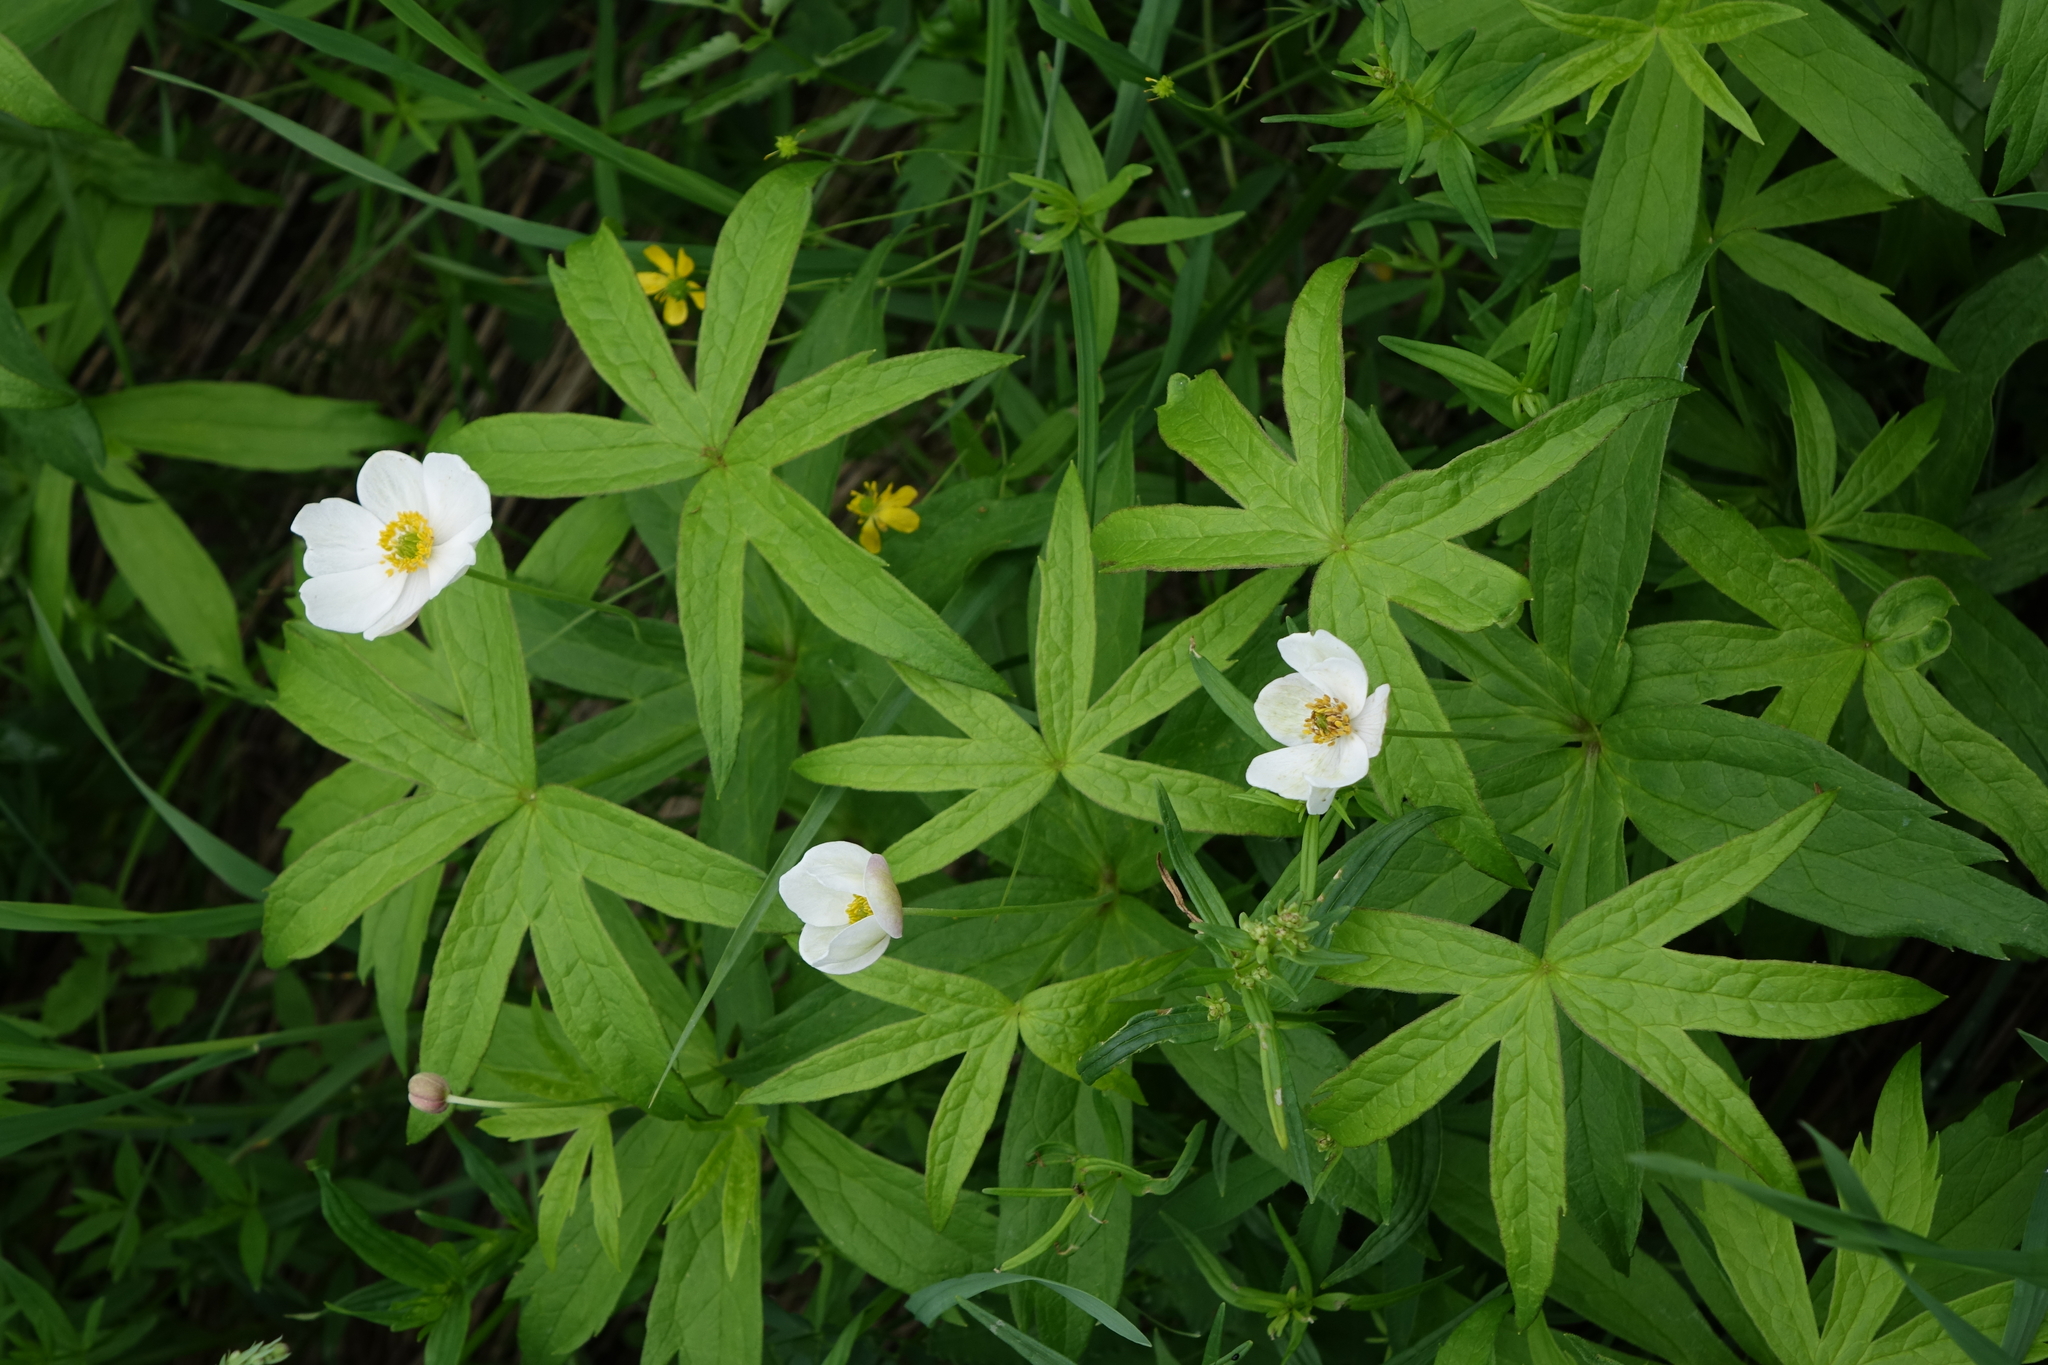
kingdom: Plantae
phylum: Tracheophyta
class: Magnoliopsida
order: Ranunculales
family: Ranunculaceae
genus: Anemonastrum
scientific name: Anemonastrum dichotomum
